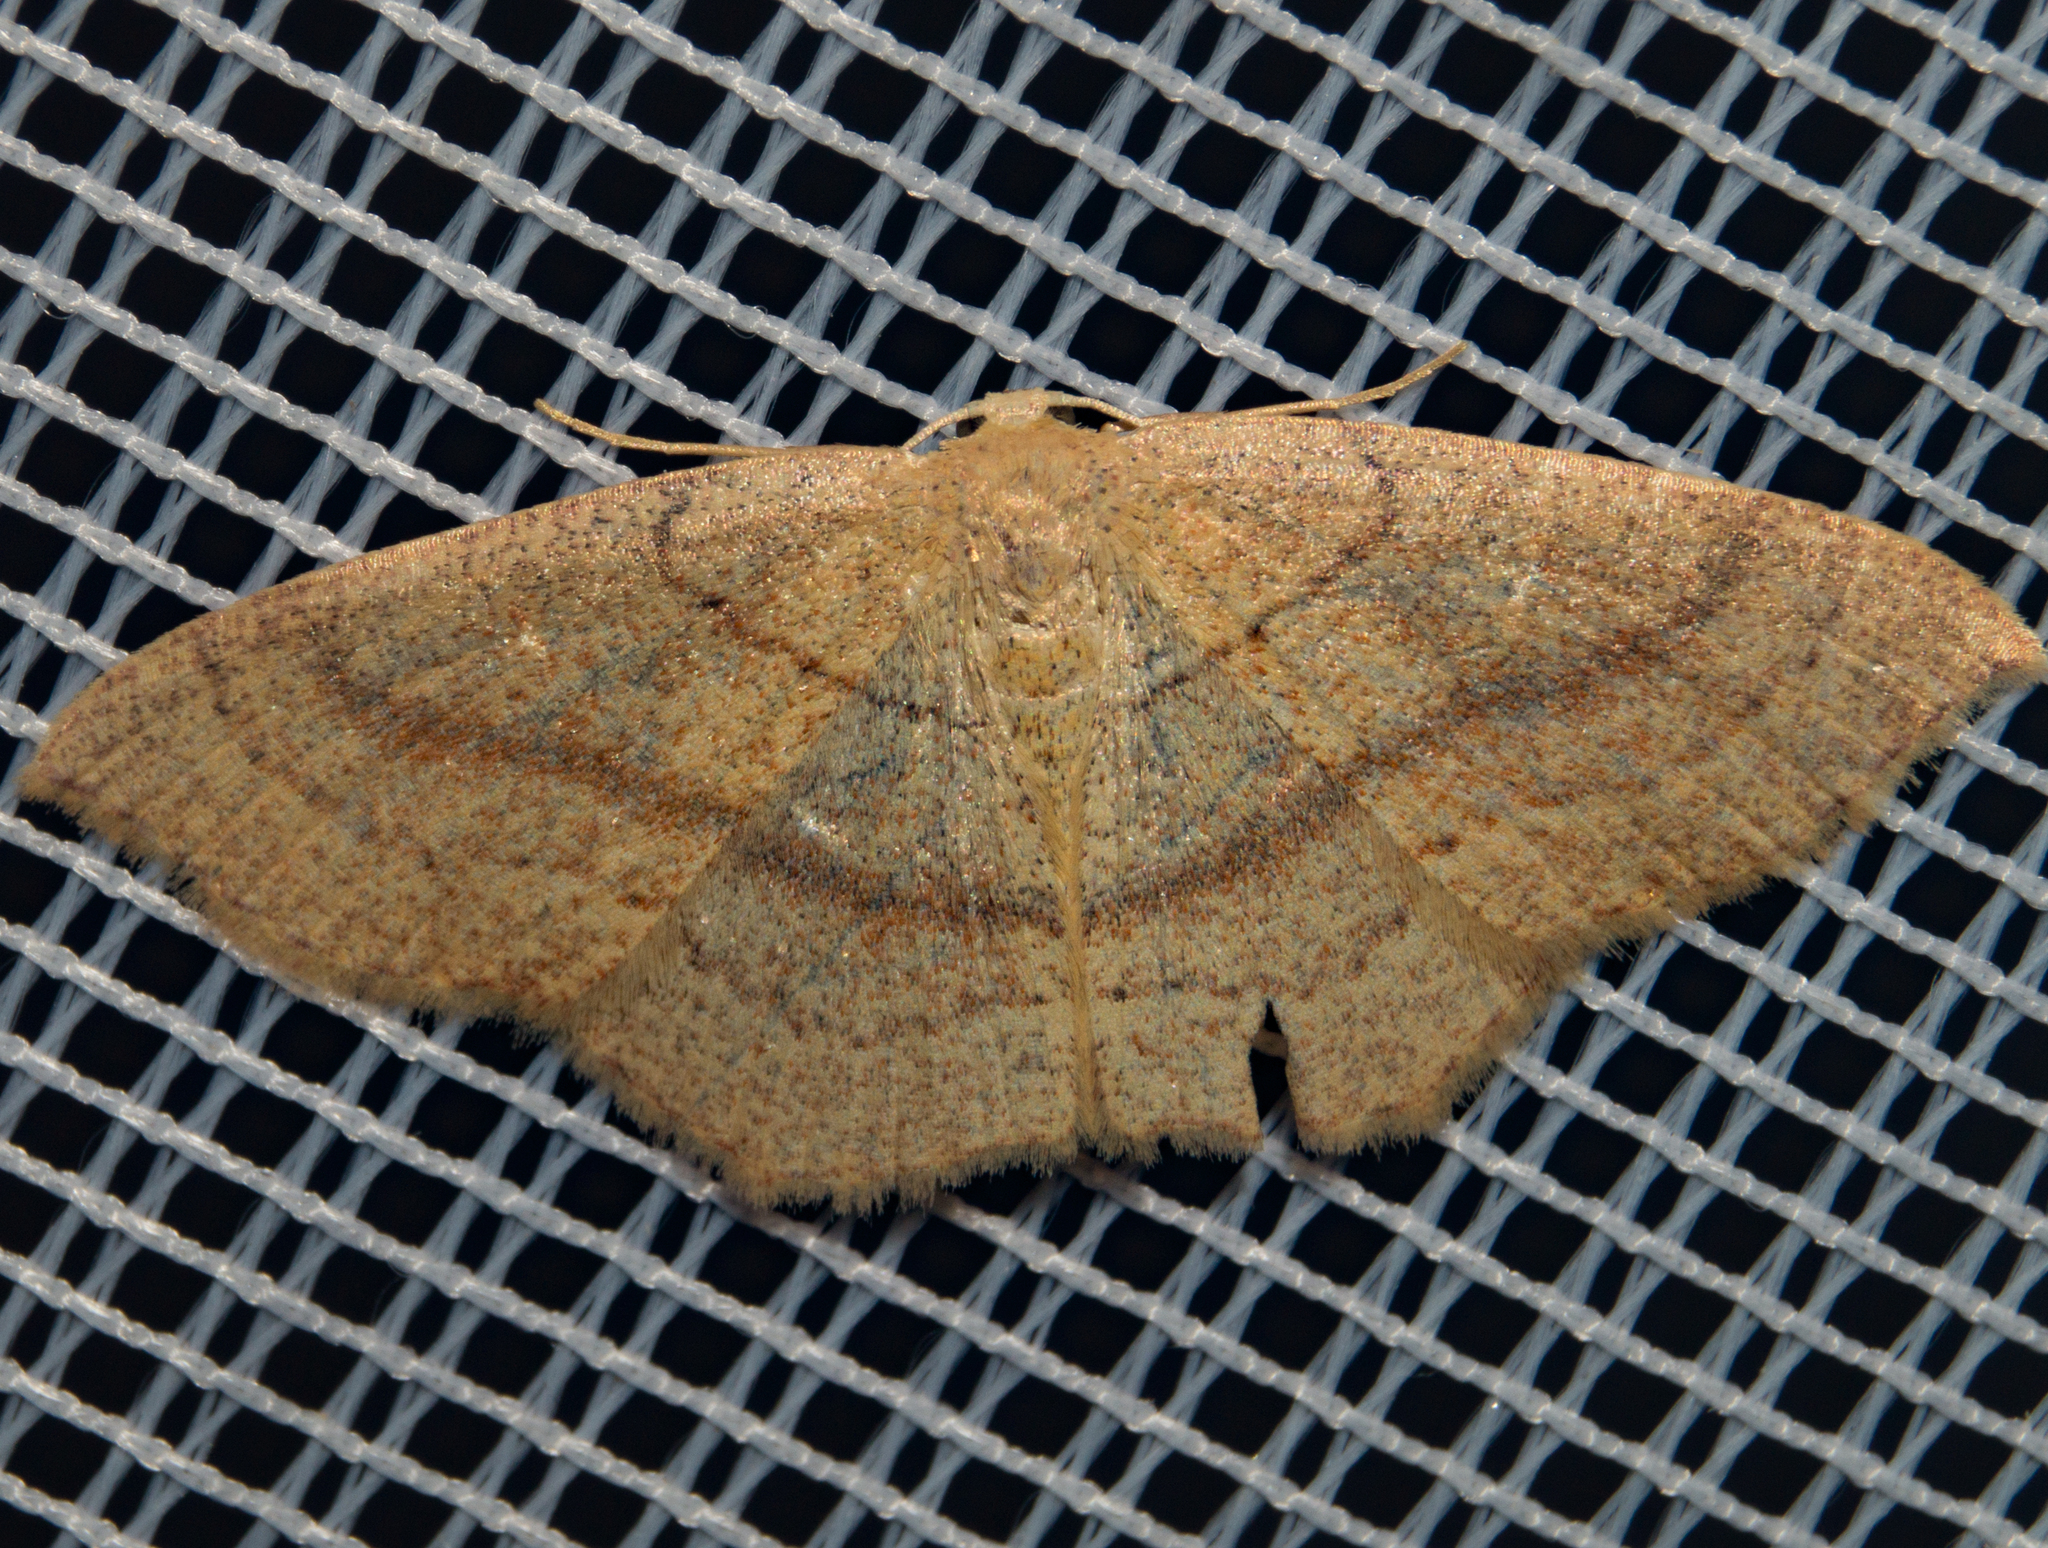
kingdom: Animalia
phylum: Arthropoda
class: Insecta
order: Lepidoptera
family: Geometridae
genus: Cyclophora
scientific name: Cyclophora linearia
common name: Clay triple-lines
